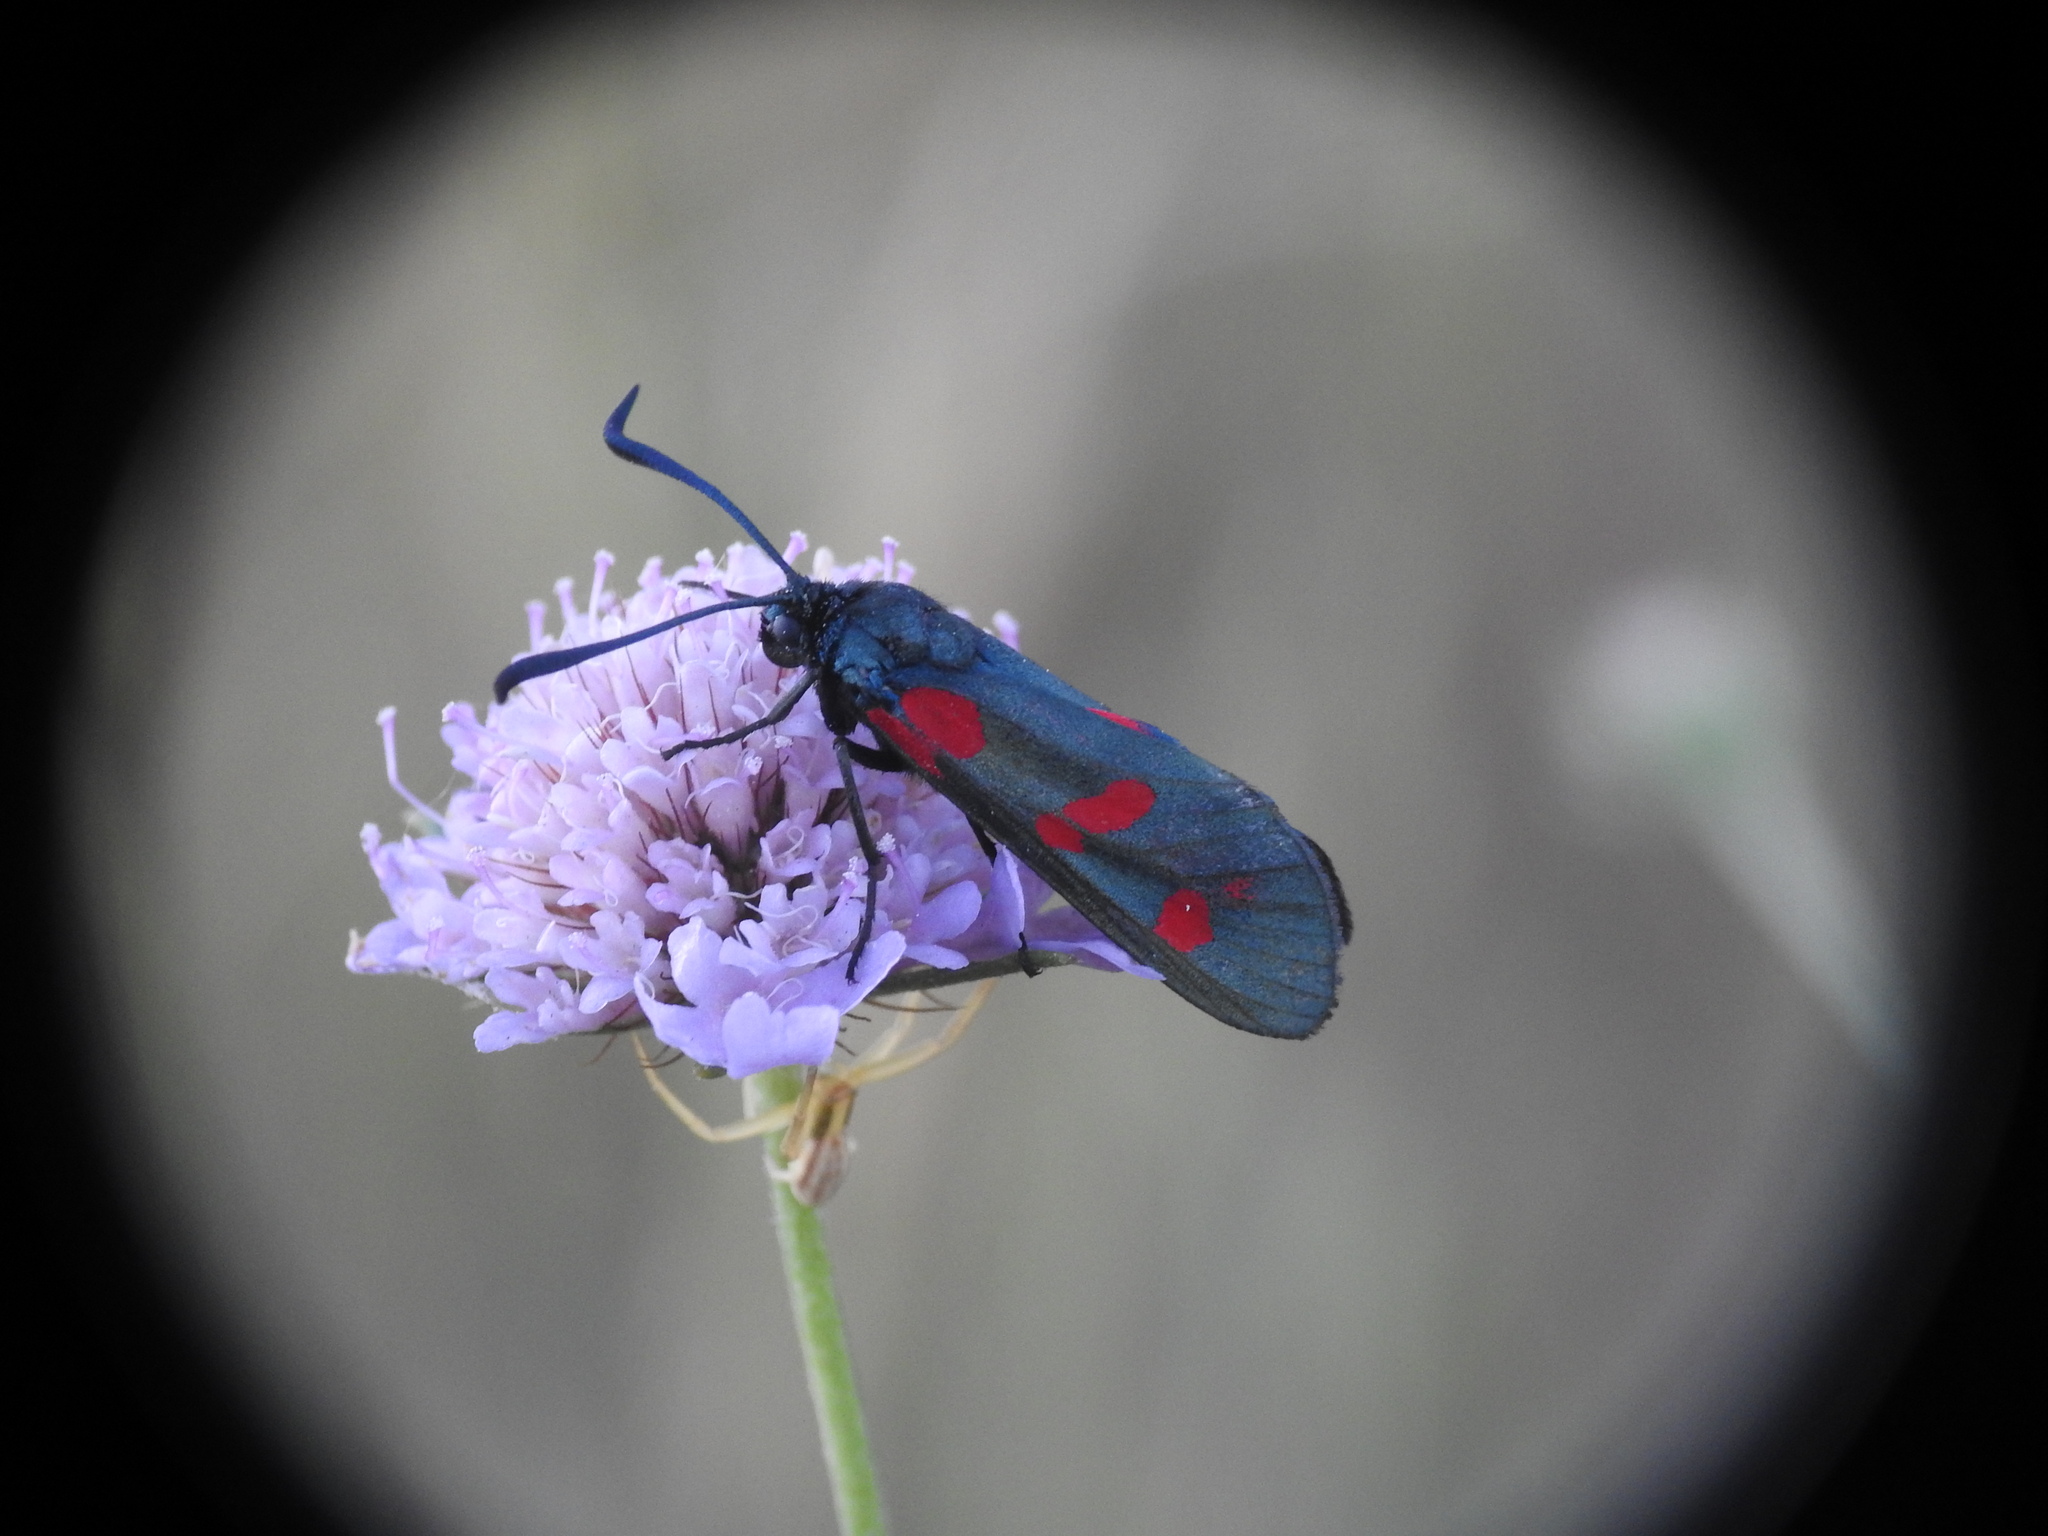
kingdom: Animalia
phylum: Arthropoda
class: Insecta
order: Lepidoptera
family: Zygaenidae
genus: Zygaena
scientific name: Zygaena filipendulae
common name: Six-spot burnet
